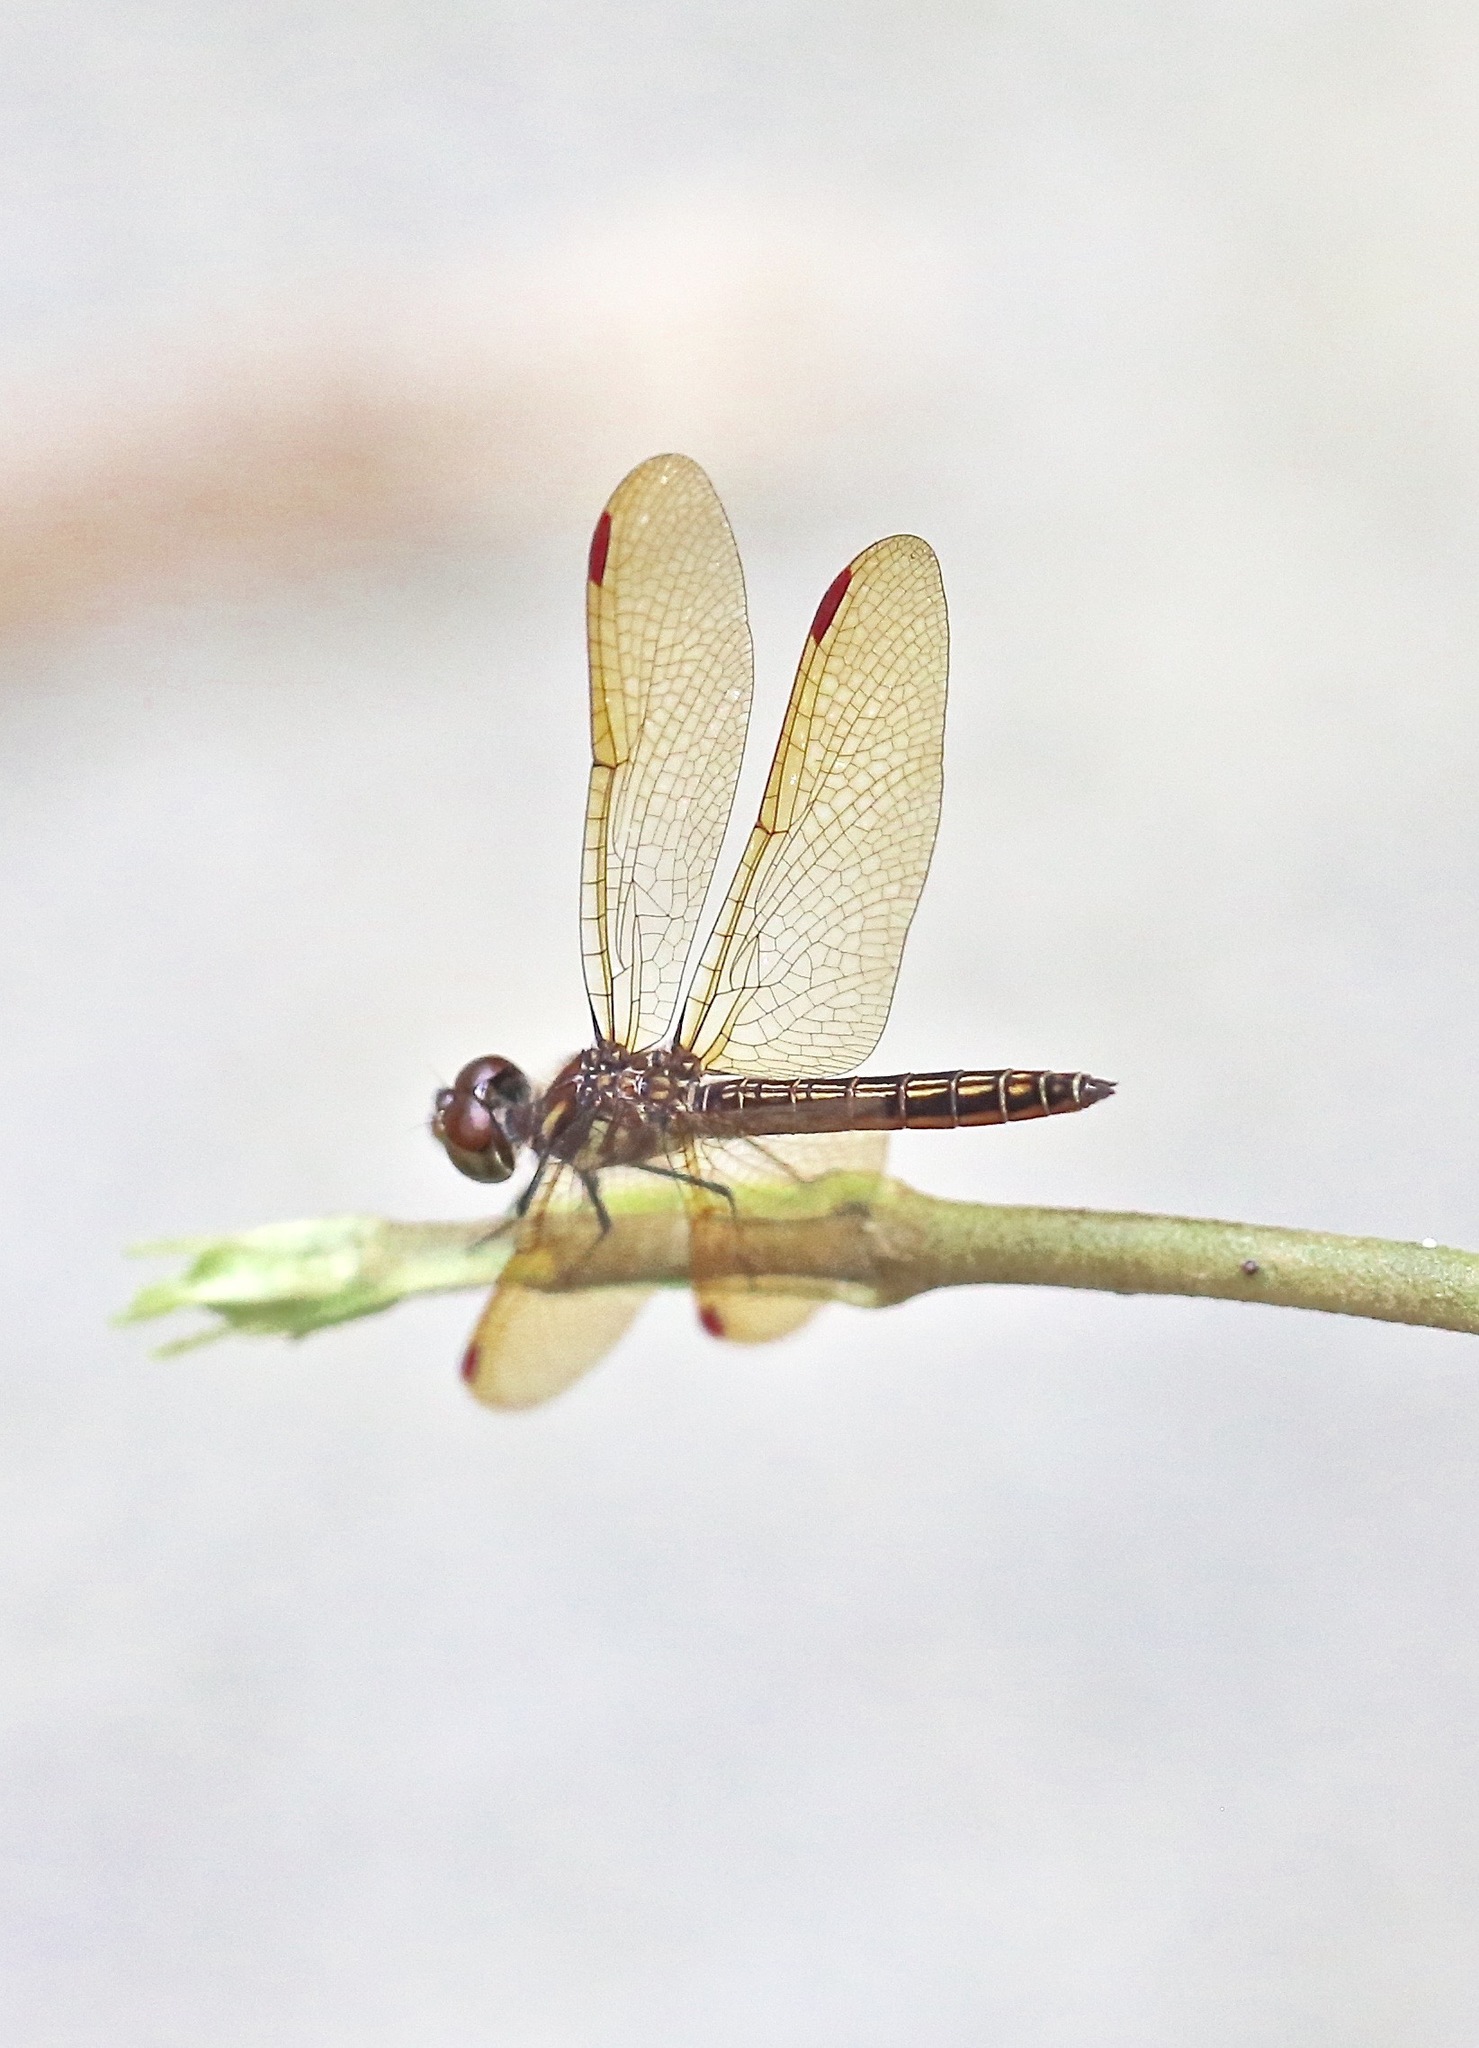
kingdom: Animalia
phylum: Arthropoda
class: Insecta
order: Odonata
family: Libellulidae
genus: Perithemis
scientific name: Perithemis domitia
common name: Slough amberwing
